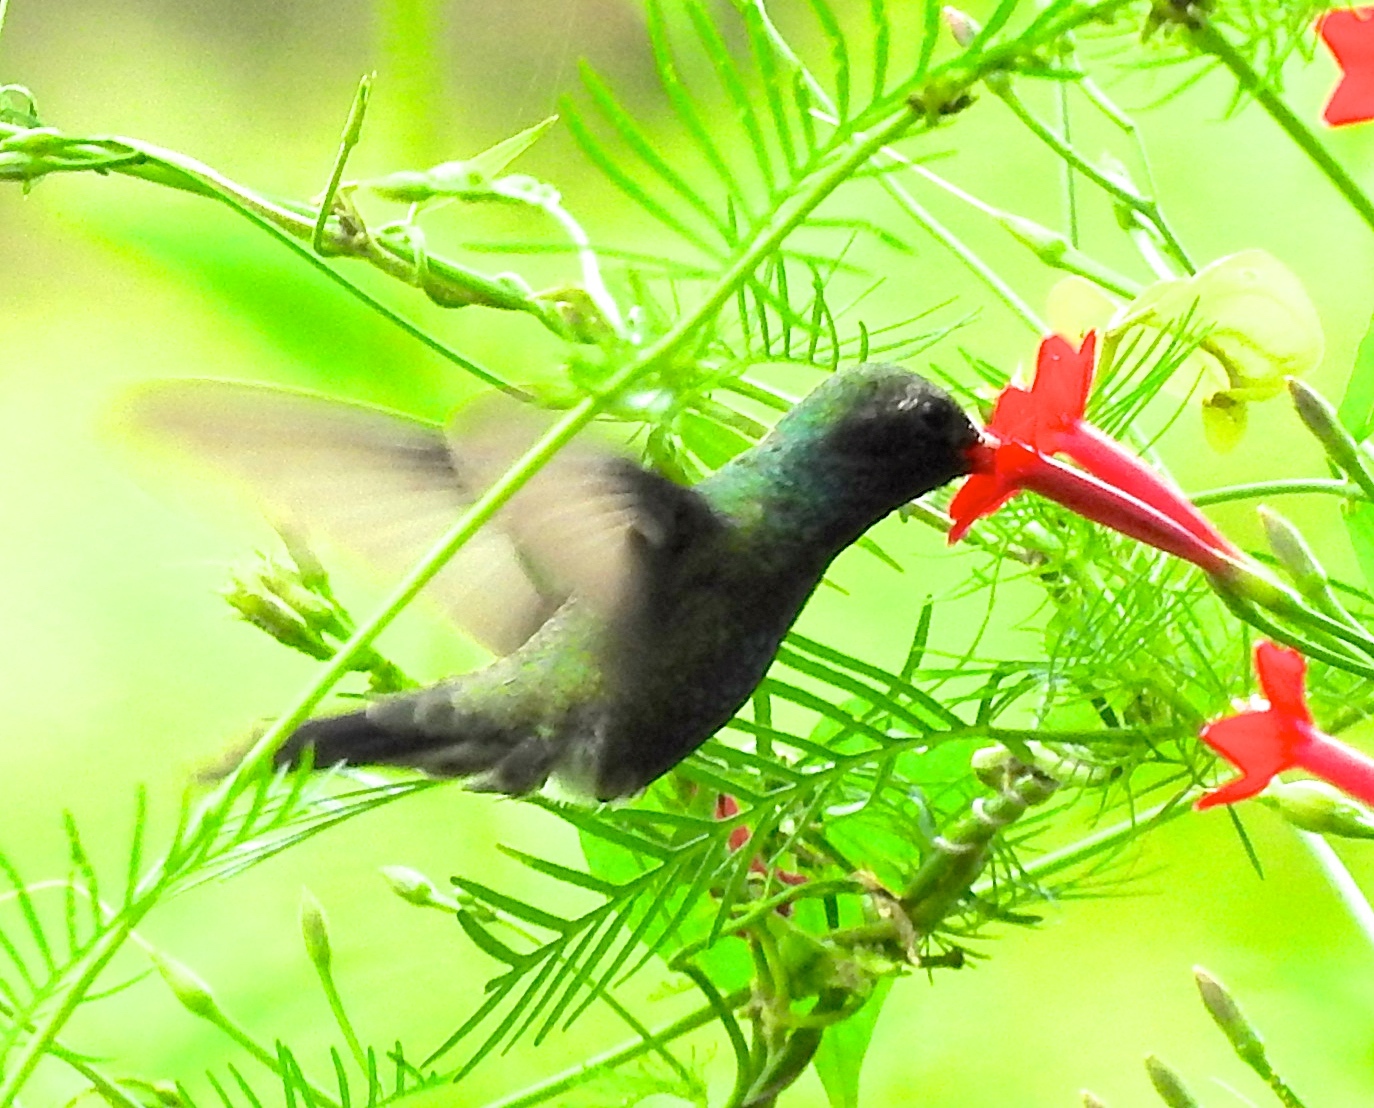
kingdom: Animalia
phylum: Chordata
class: Aves
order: Apodiformes
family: Trochilidae
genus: Cynanthus
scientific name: Cynanthus latirostris
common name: Broad-billed hummingbird
